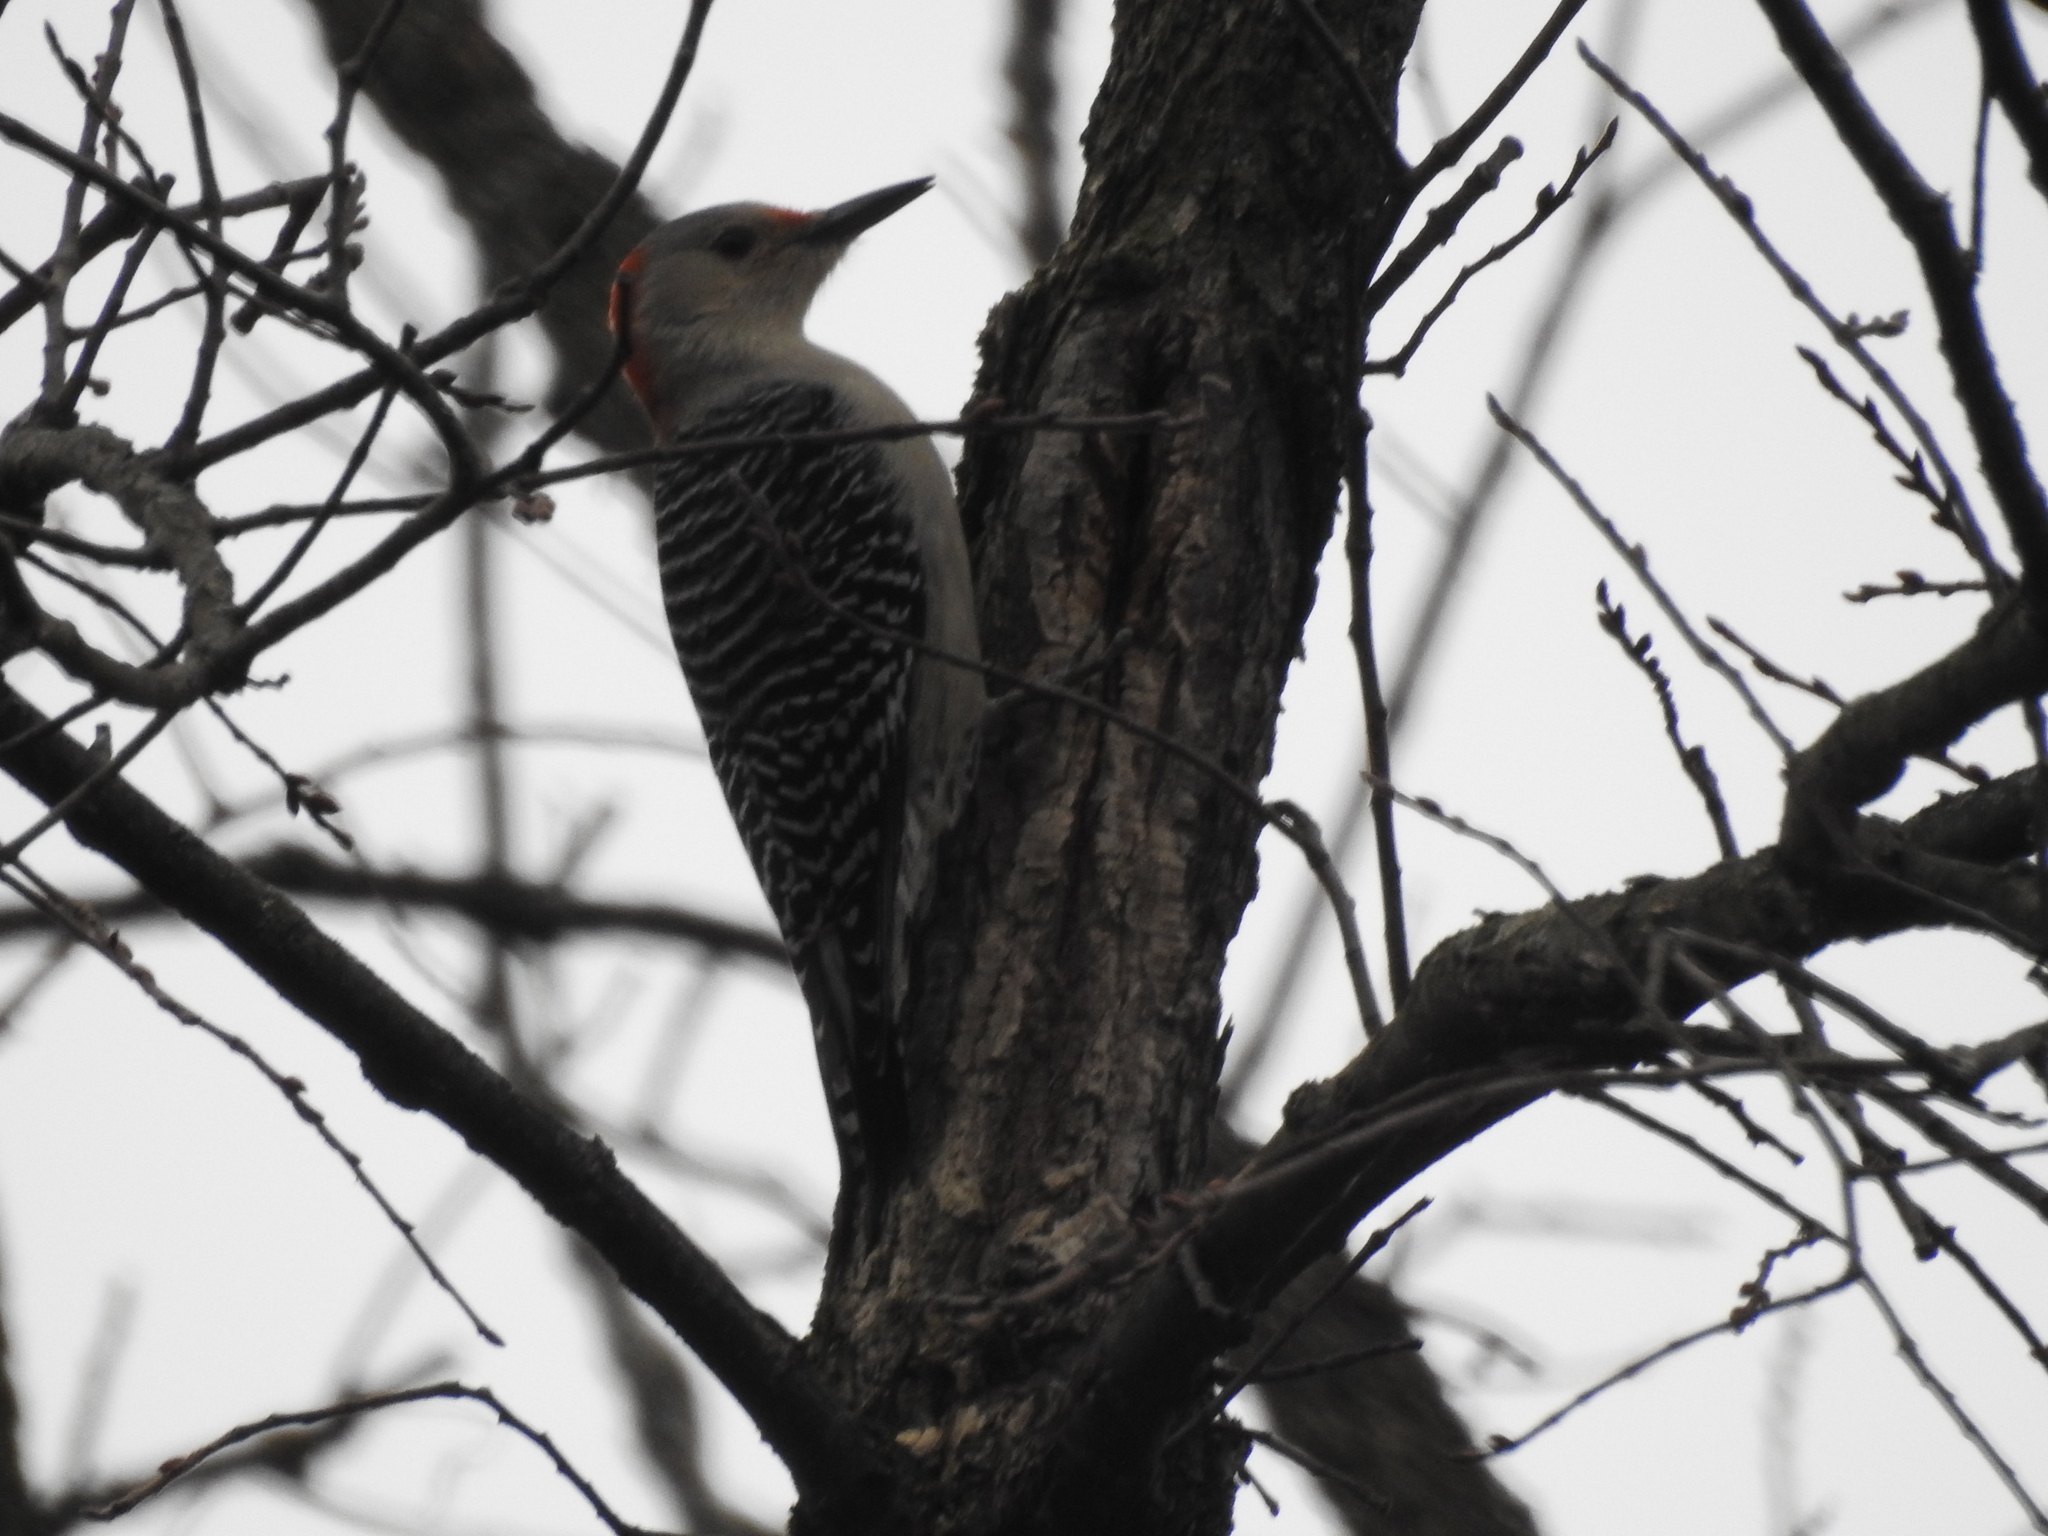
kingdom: Animalia
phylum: Chordata
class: Aves
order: Piciformes
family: Picidae
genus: Melanerpes
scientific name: Melanerpes carolinus
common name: Red-bellied woodpecker
